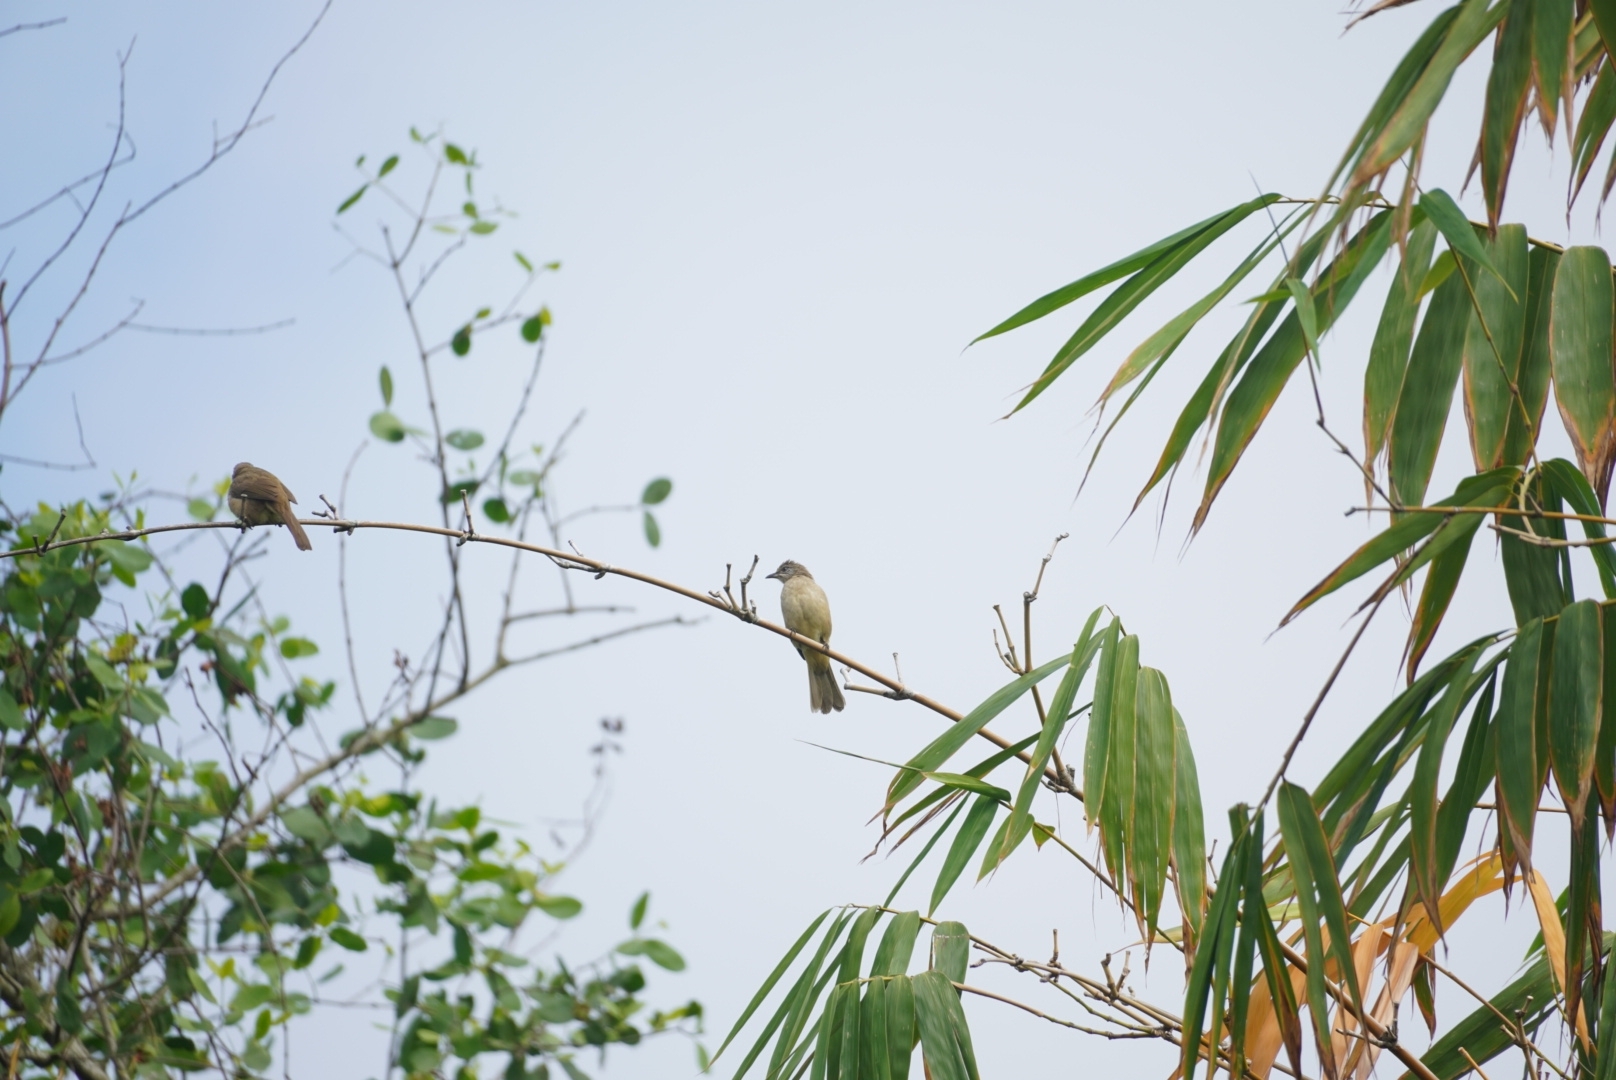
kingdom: Animalia
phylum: Chordata
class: Aves
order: Passeriformes
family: Pycnonotidae
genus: Pycnonotus
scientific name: Pycnonotus blanfordi
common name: Streak-eared bulbul
